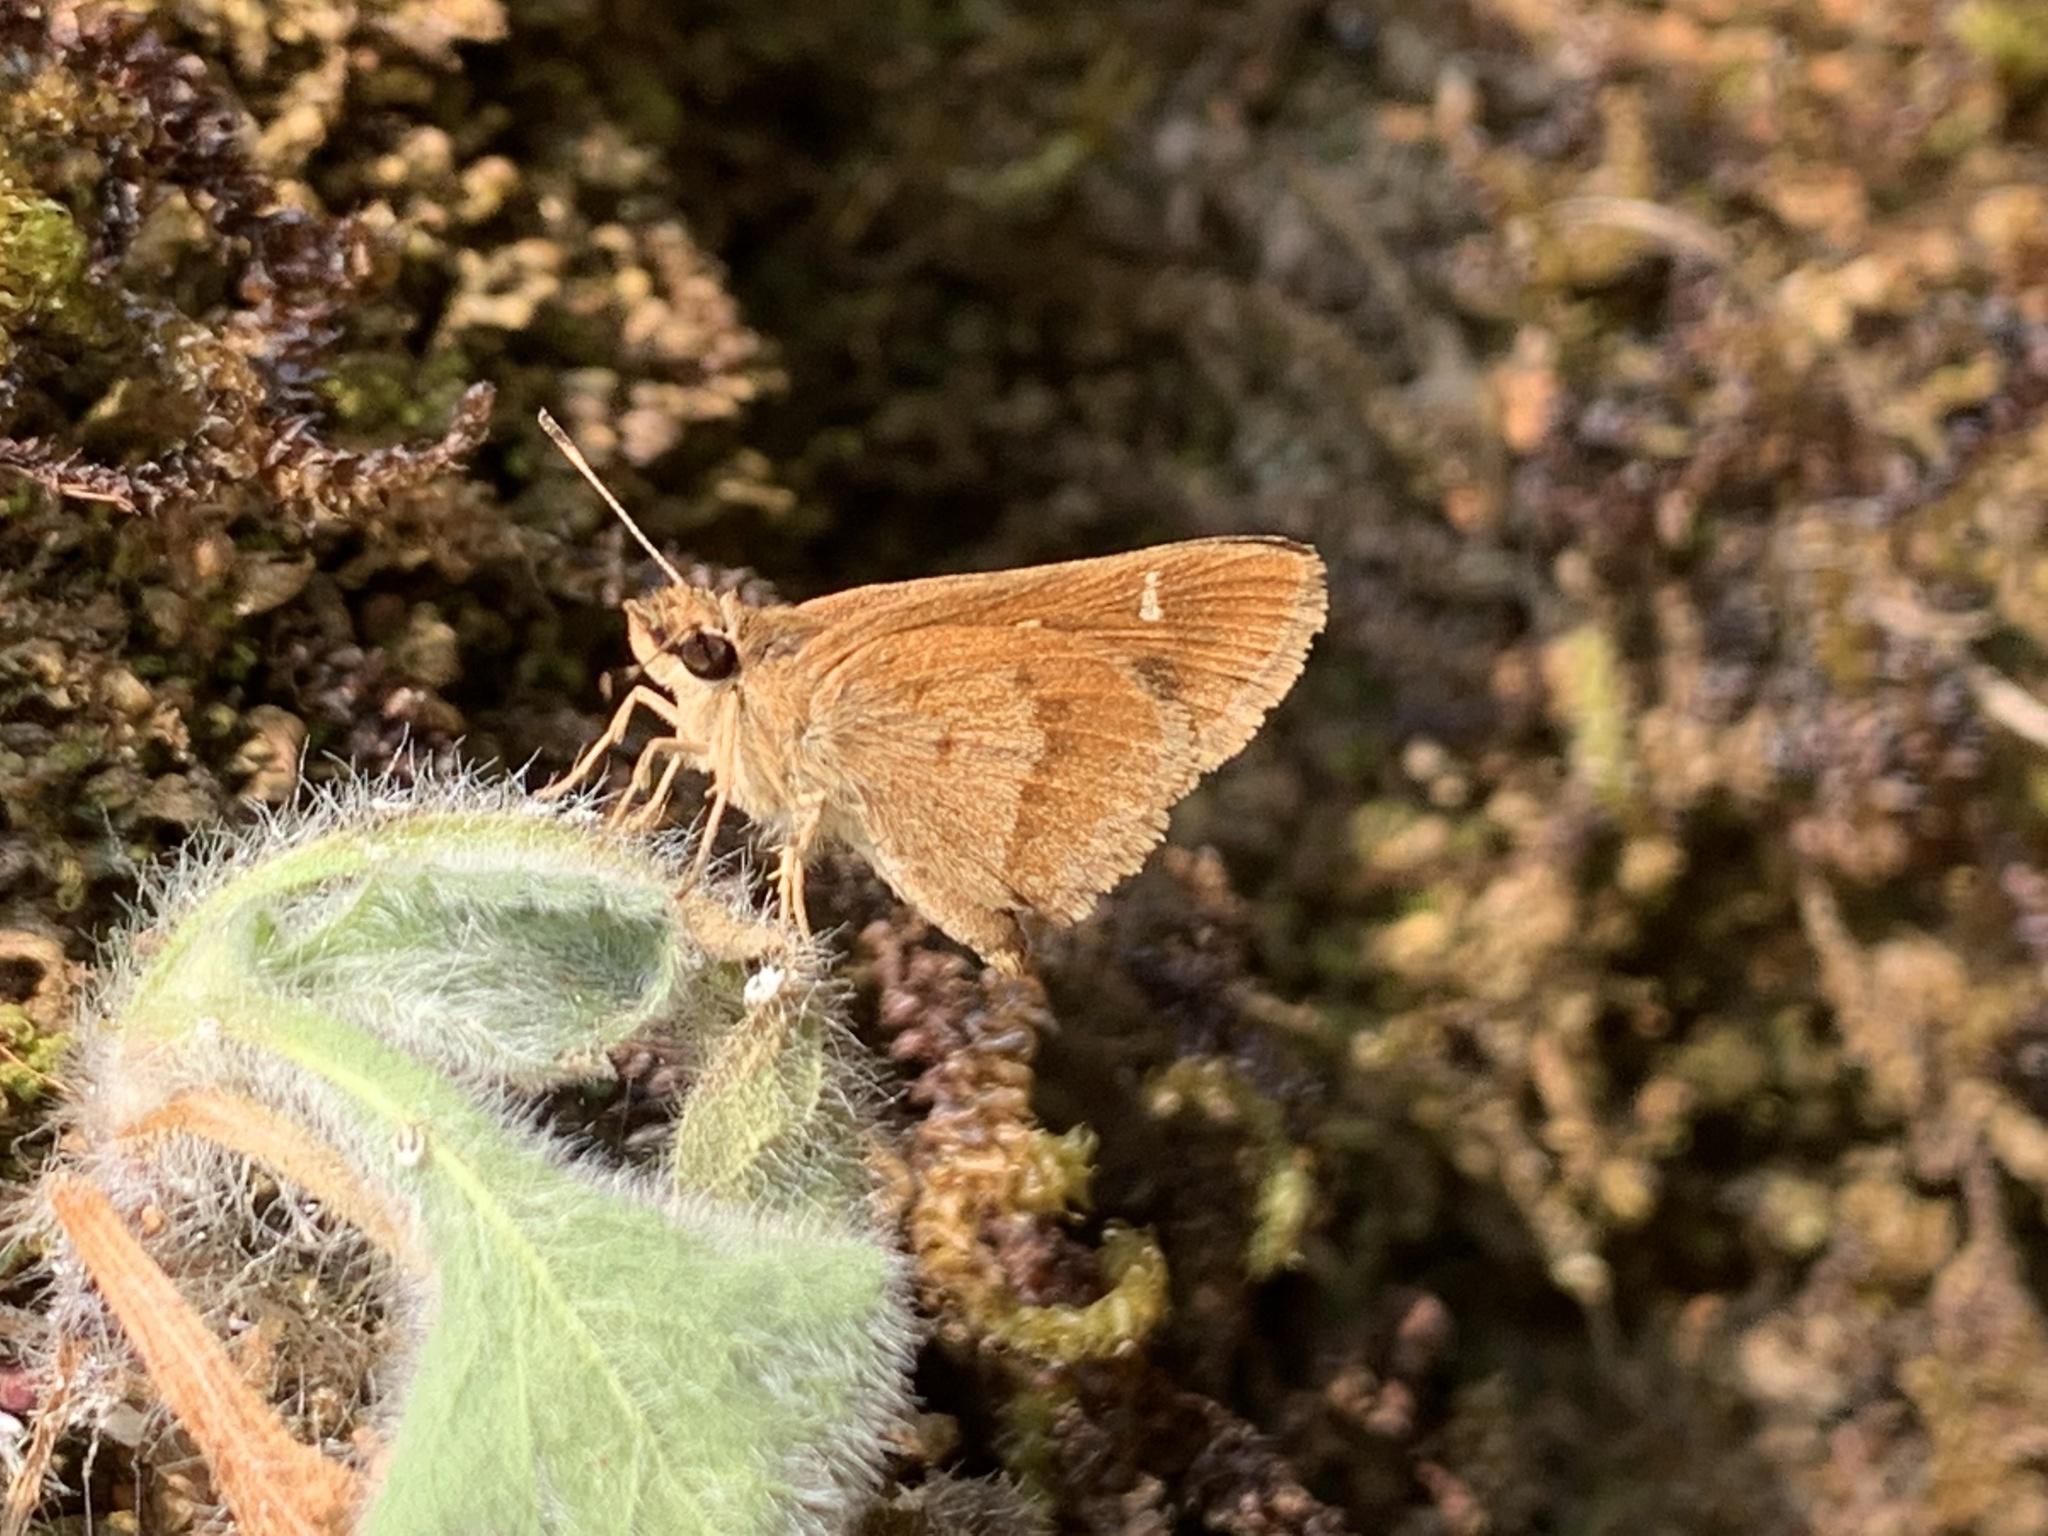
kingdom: Animalia
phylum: Arthropoda
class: Insecta
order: Lepidoptera
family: Hesperiidae
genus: Arnetta
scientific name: Arnetta vindhiana
